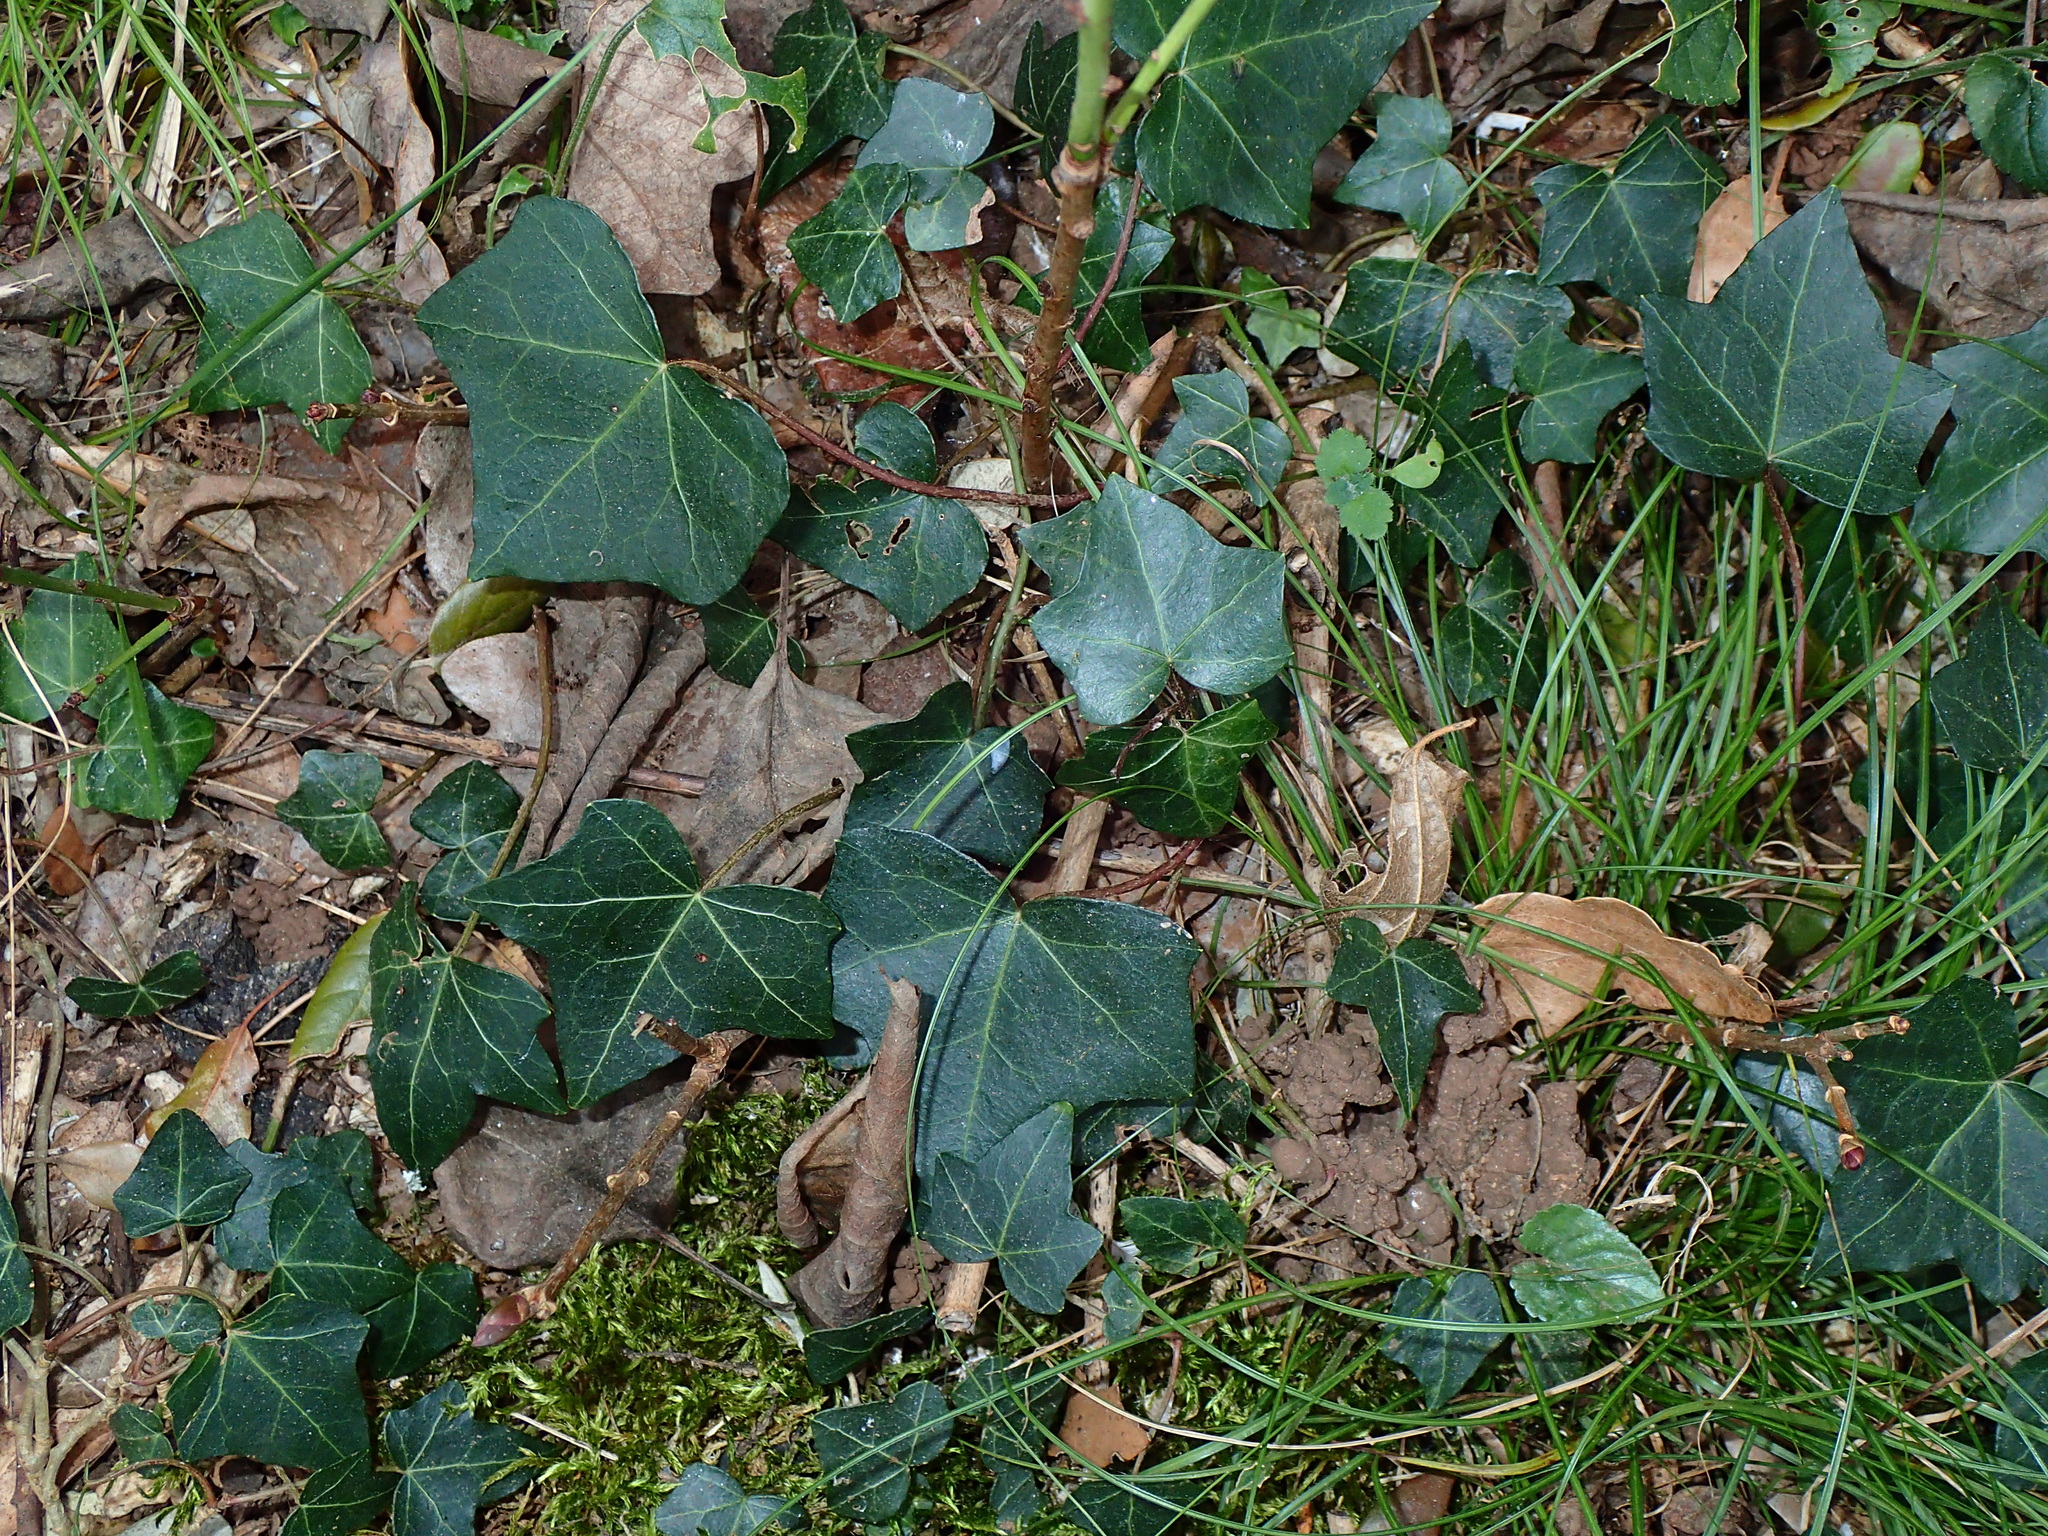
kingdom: Plantae
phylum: Tracheophyta
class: Magnoliopsida
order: Apiales
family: Araliaceae
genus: Hedera
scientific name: Hedera helix
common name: Ivy
